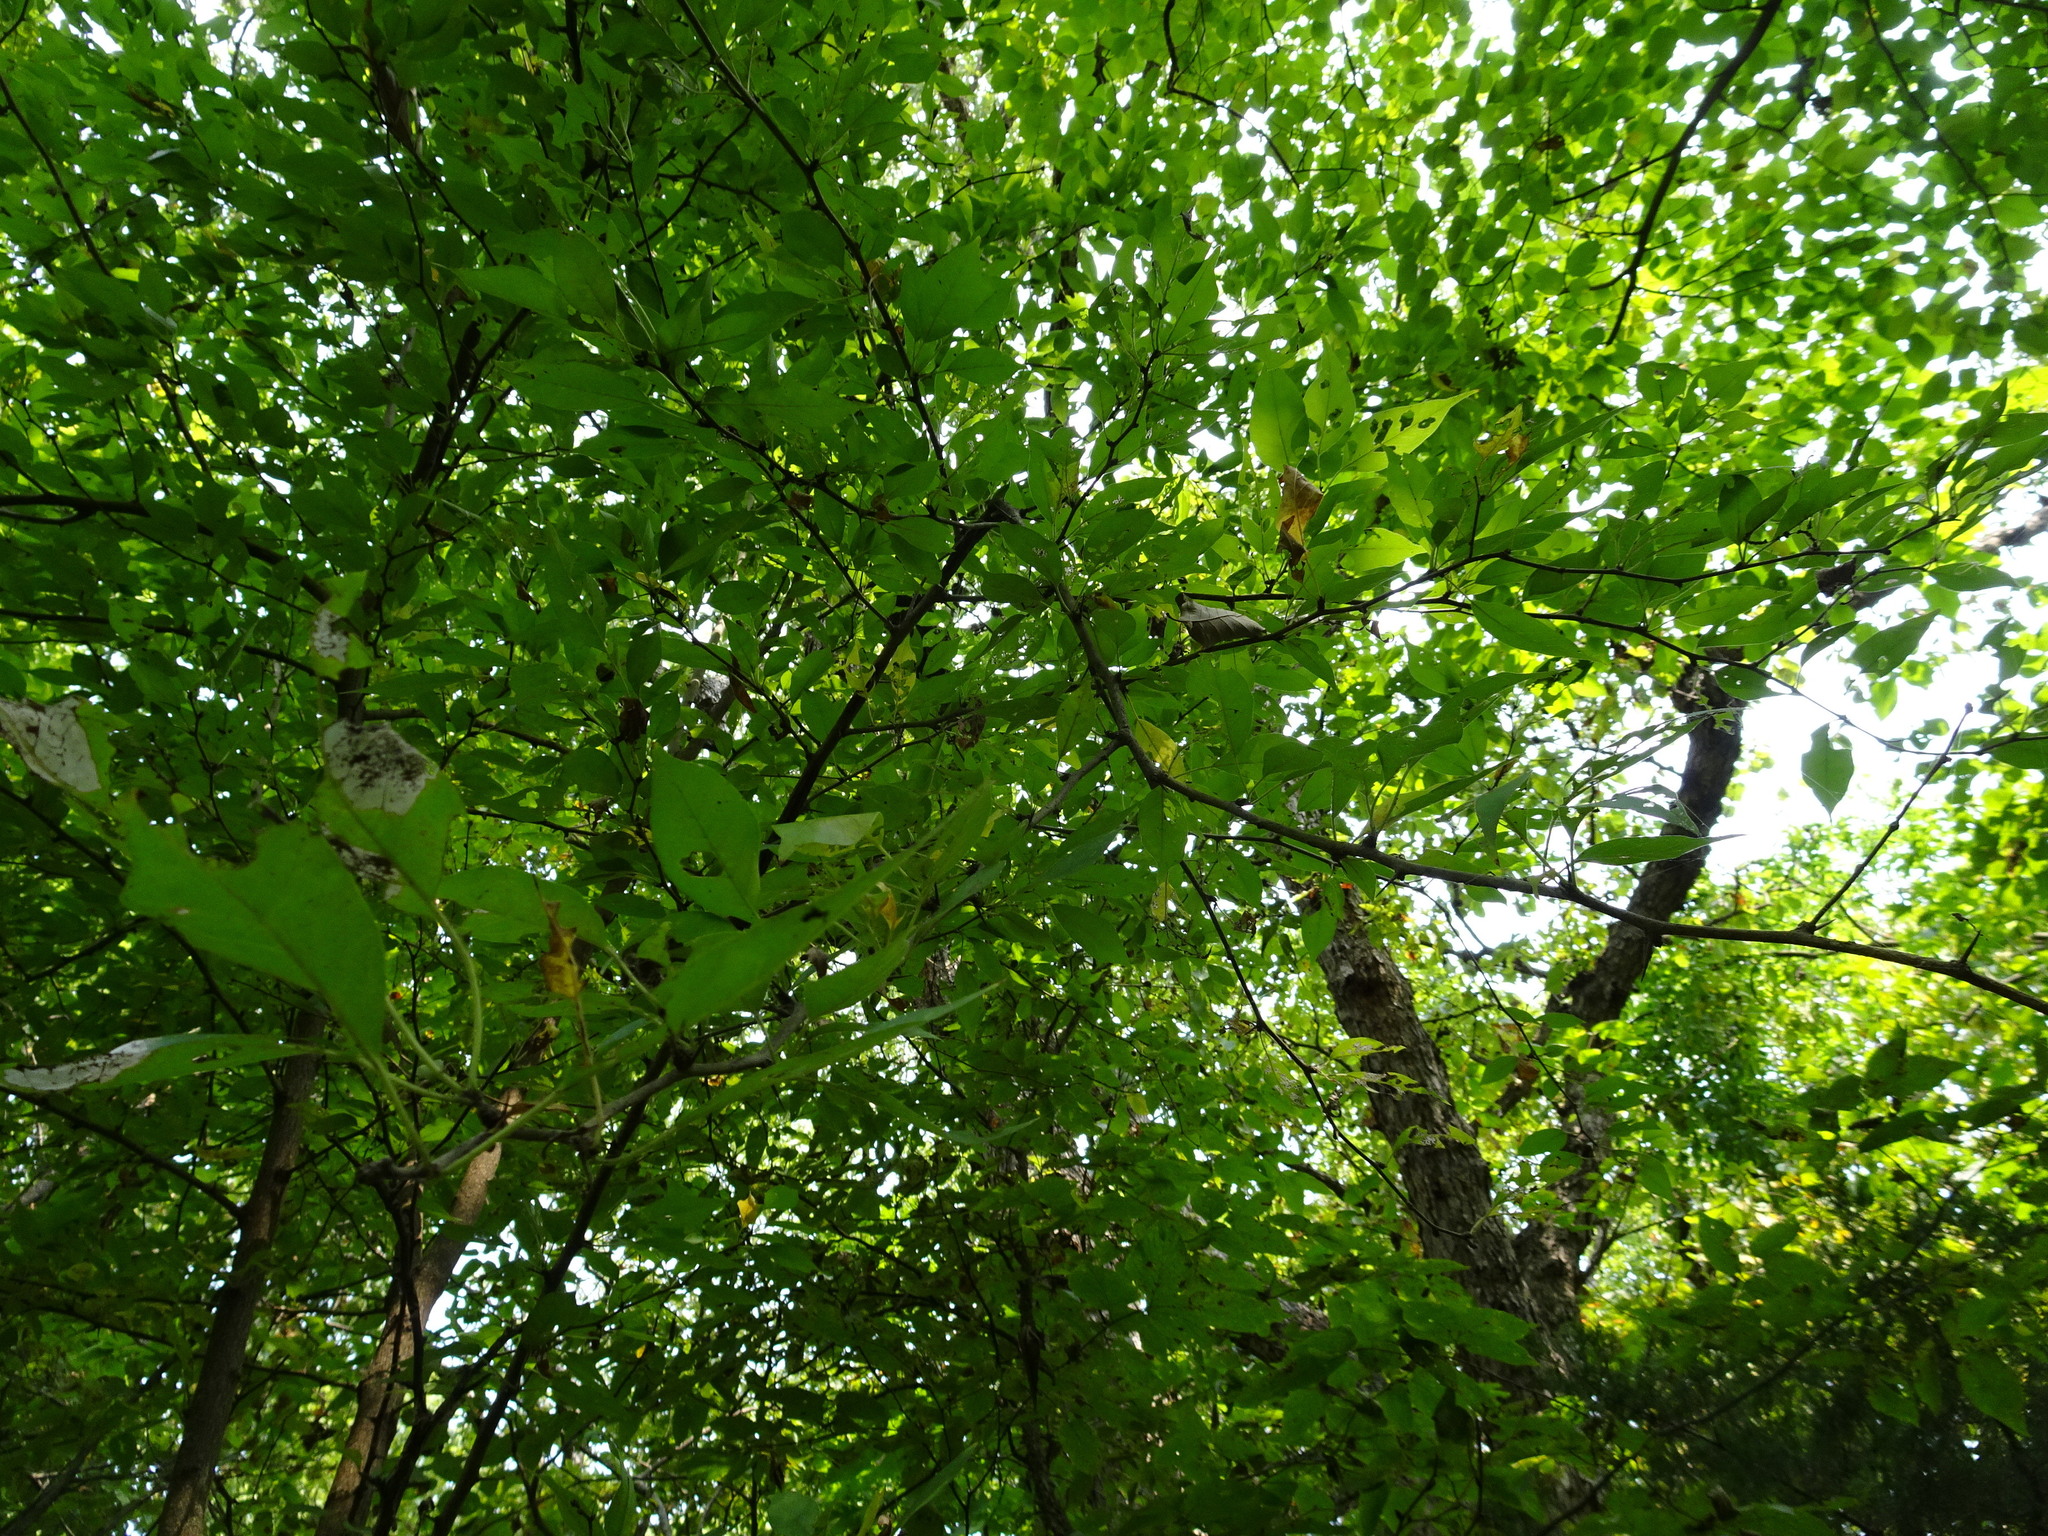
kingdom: Plantae
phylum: Tracheophyta
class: Magnoliopsida
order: Rosales
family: Moraceae
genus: Maclura
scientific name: Maclura pomifera
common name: Osage-orange
